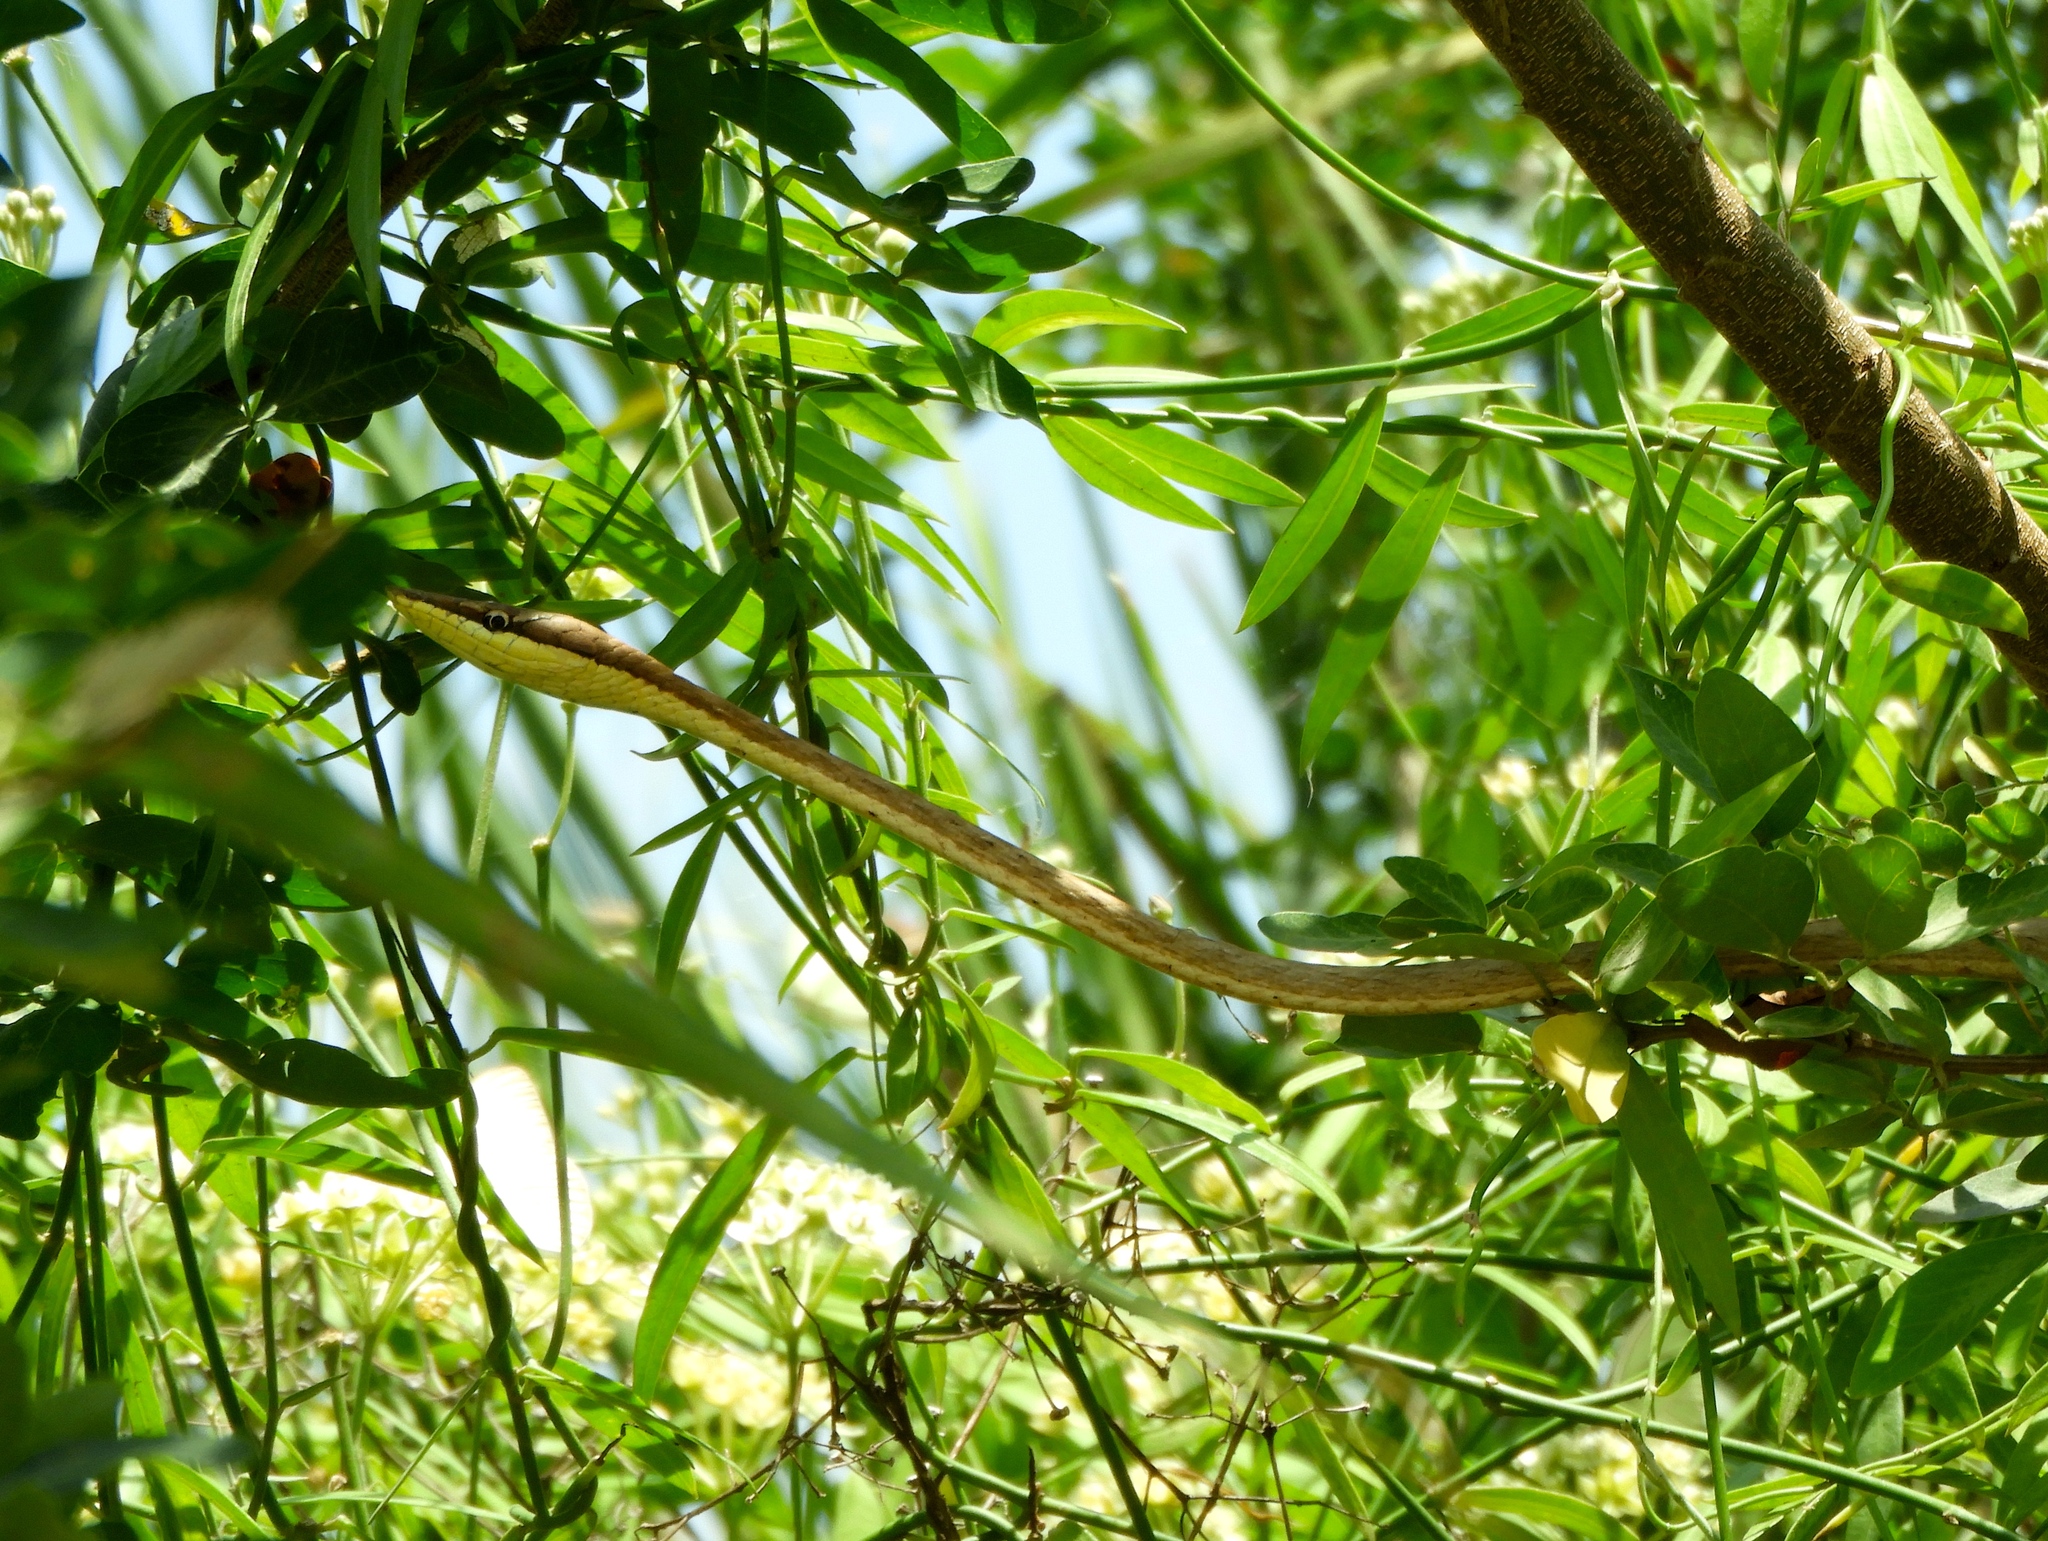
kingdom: Animalia
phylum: Chordata
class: Squamata
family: Colubridae
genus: Oxybelis
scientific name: Oxybelis microphthalmus
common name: Thrornscrub vine snake
